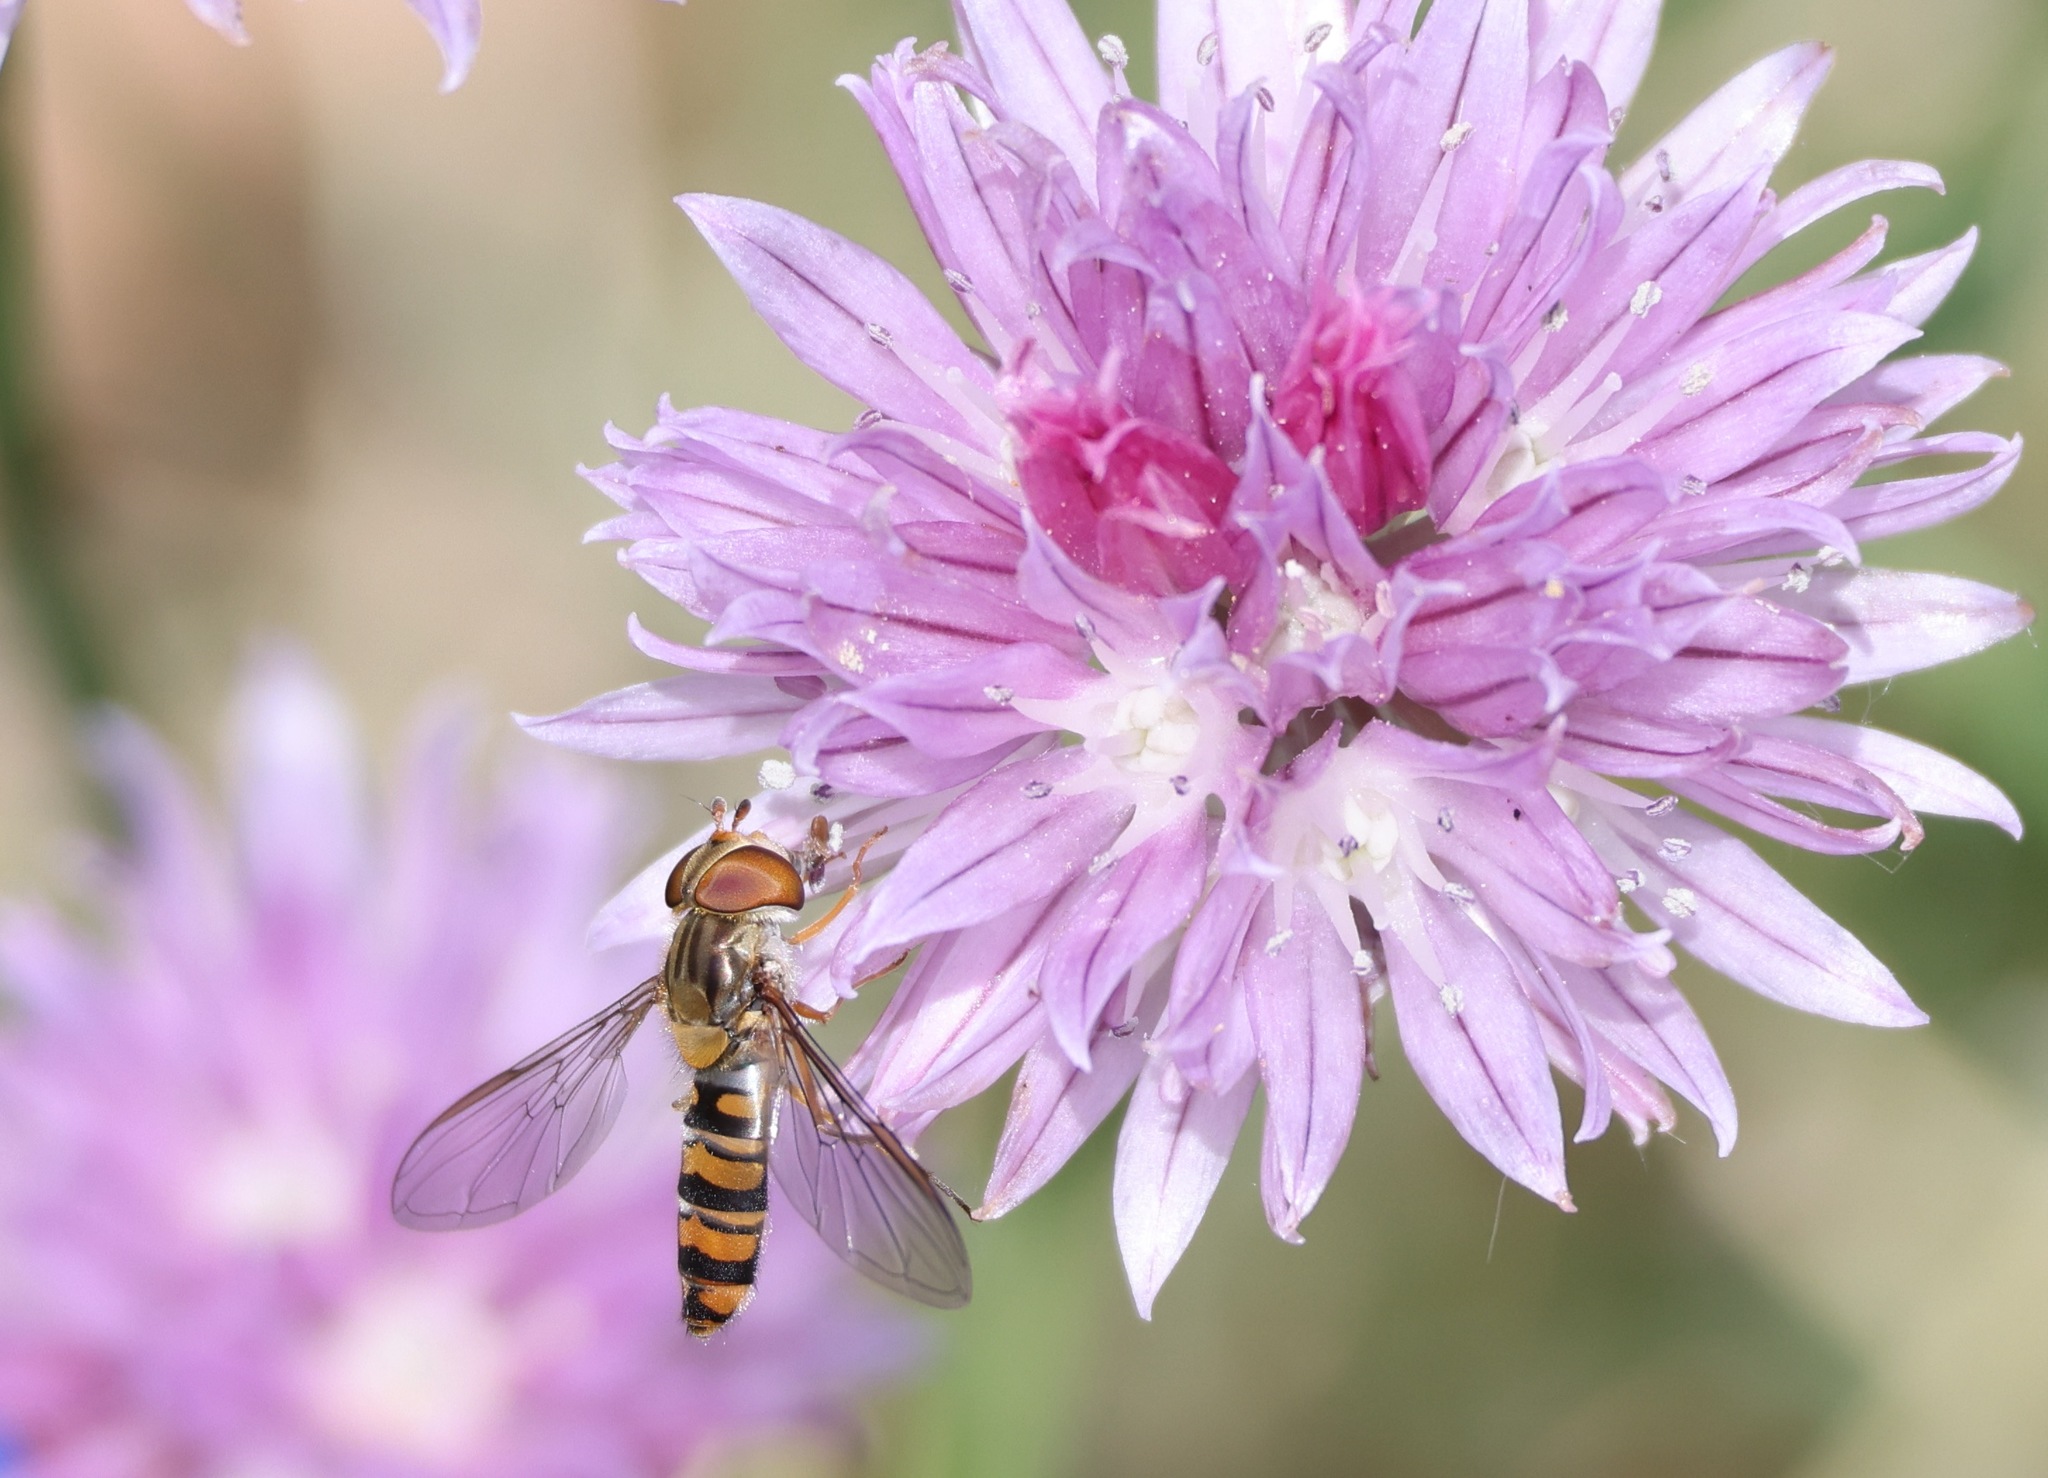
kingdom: Animalia
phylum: Arthropoda
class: Insecta
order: Diptera
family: Syrphidae
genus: Episyrphus
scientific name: Episyrphus balteatus
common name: Marmalade hoverfly
